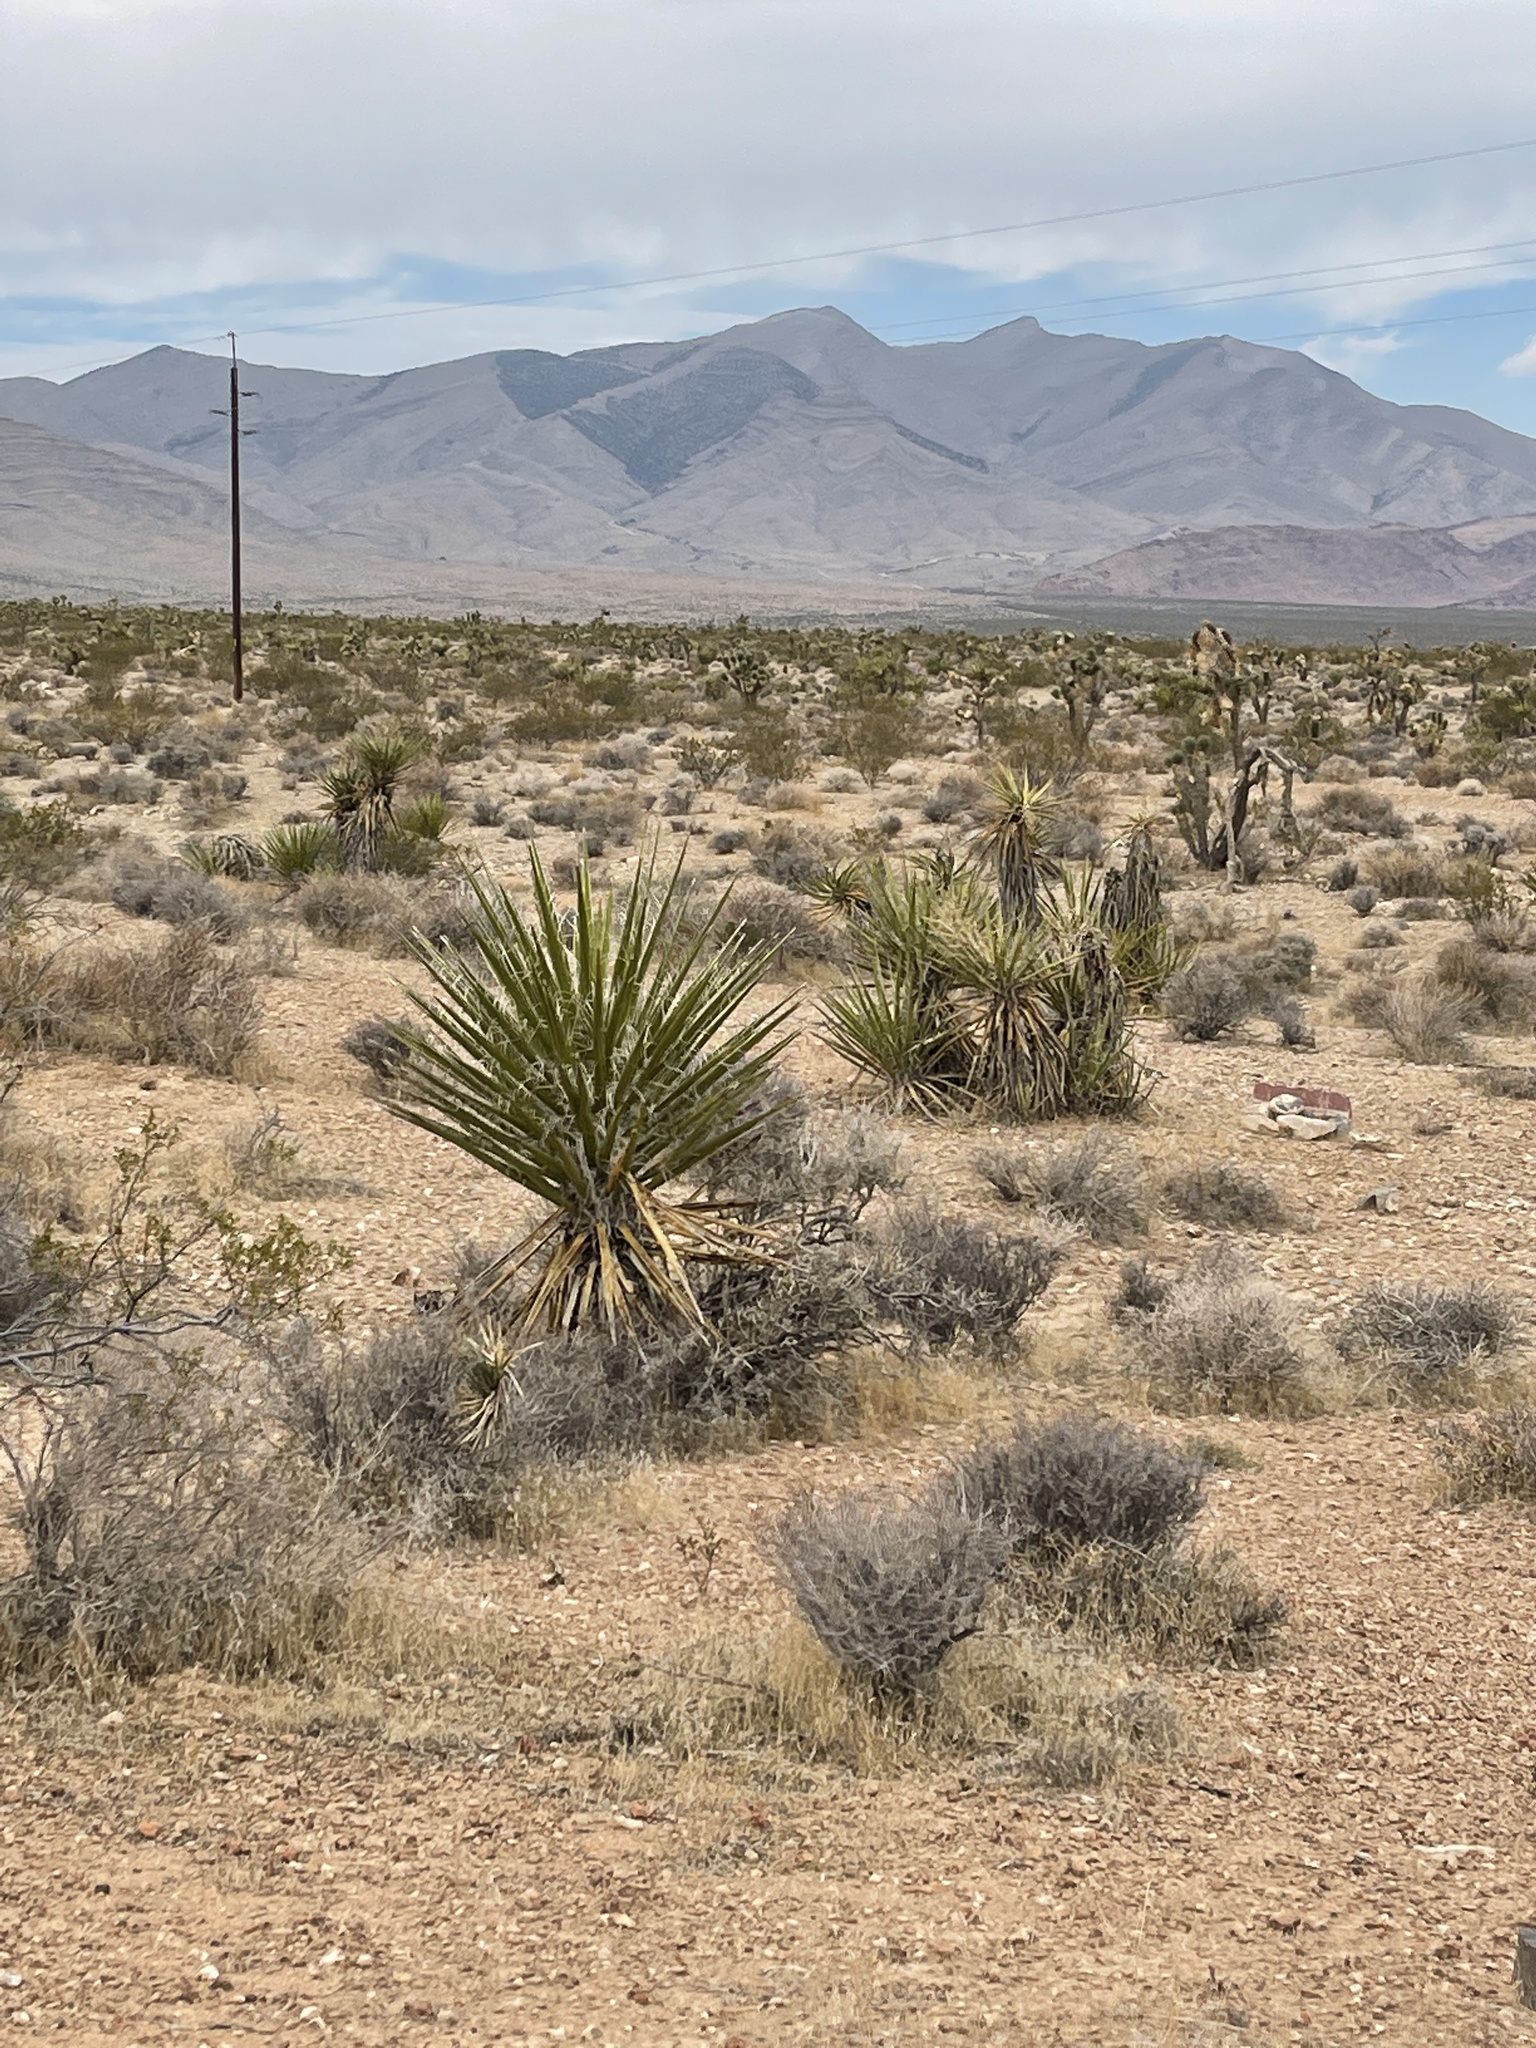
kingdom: Plantae
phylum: Tracheophyta
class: Liliopsida
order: Asparagales
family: Asparagaceae
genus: Yucca
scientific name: Yucca schidigera
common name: Mojave yucca
